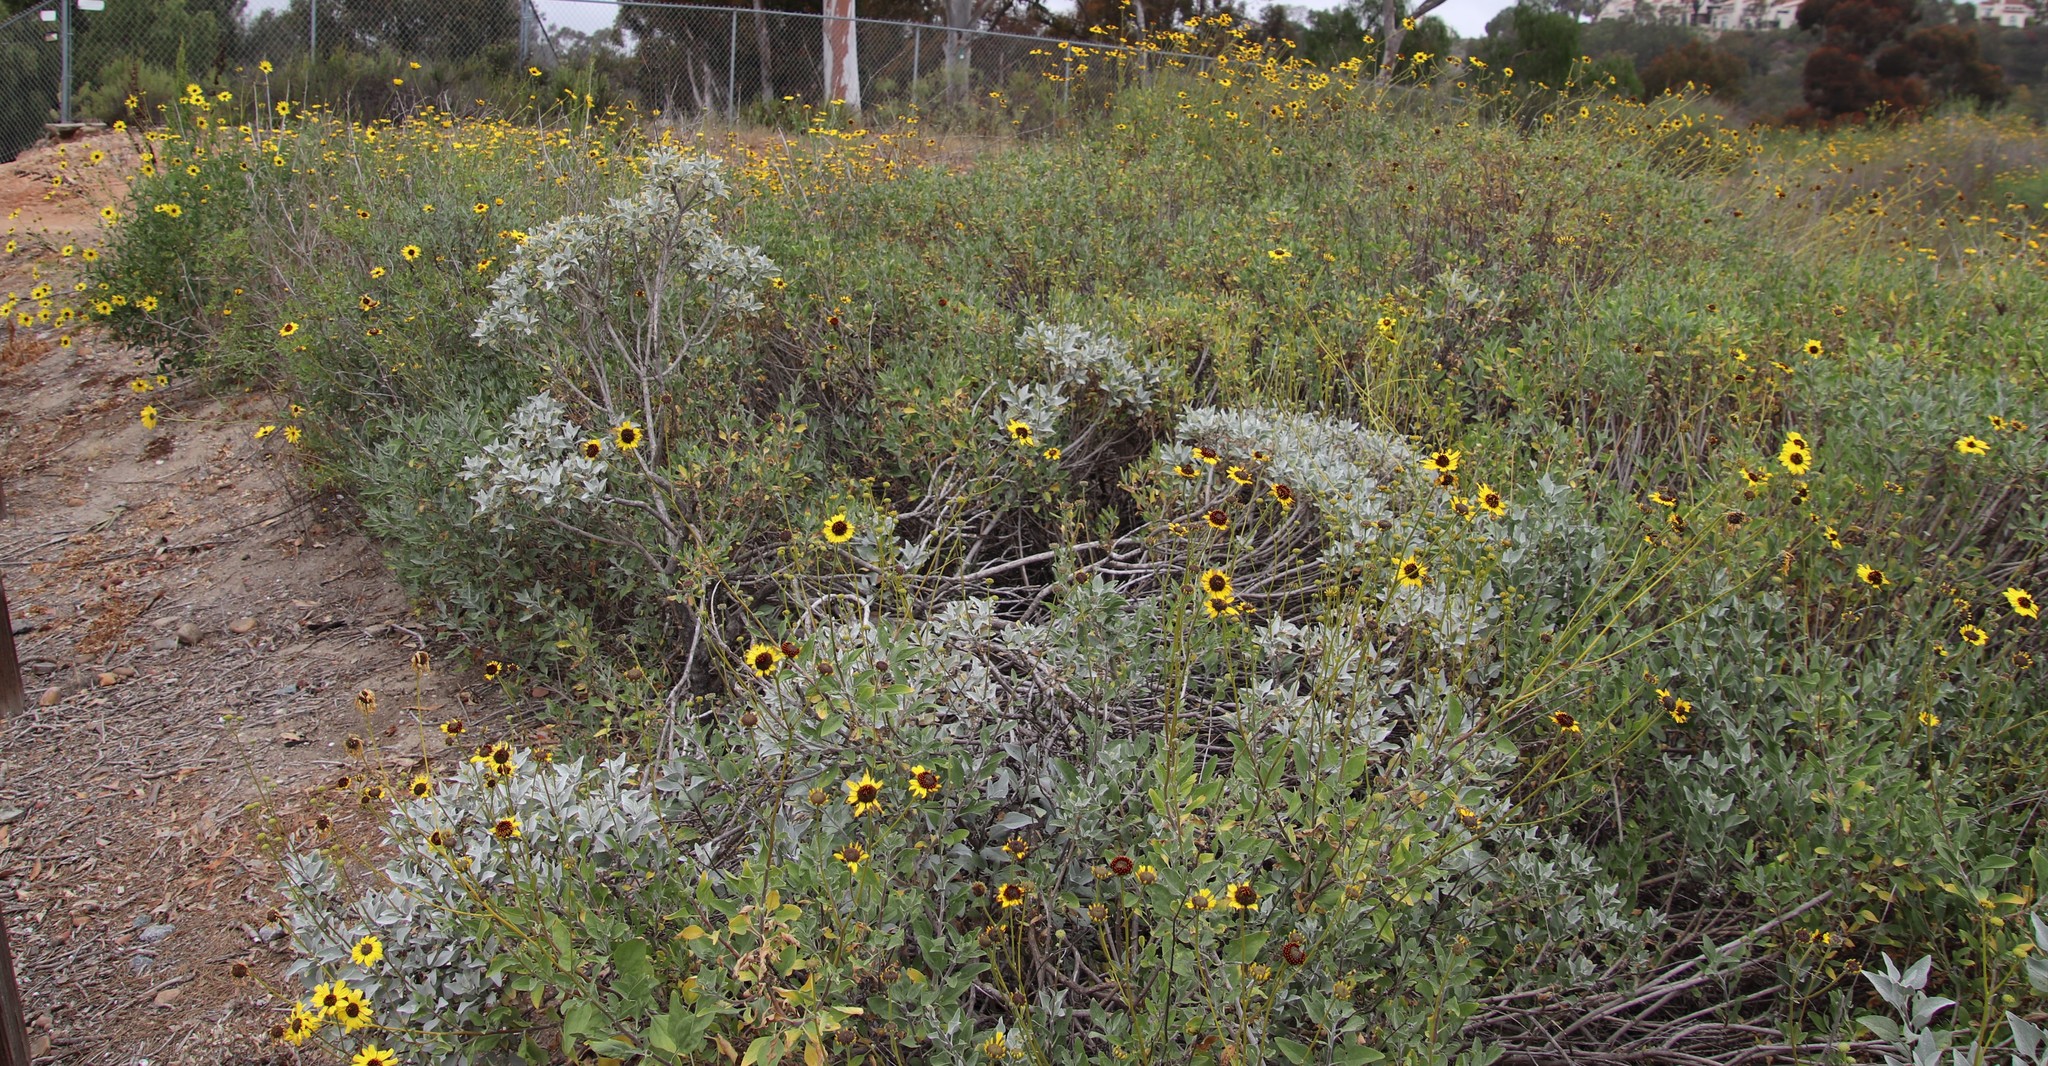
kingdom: Plantae
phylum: Tracheophyta
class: Magnoliopsida
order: Asterales
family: Asteraceae
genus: Encelia
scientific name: Encelia farinosa
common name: Brittlebush
